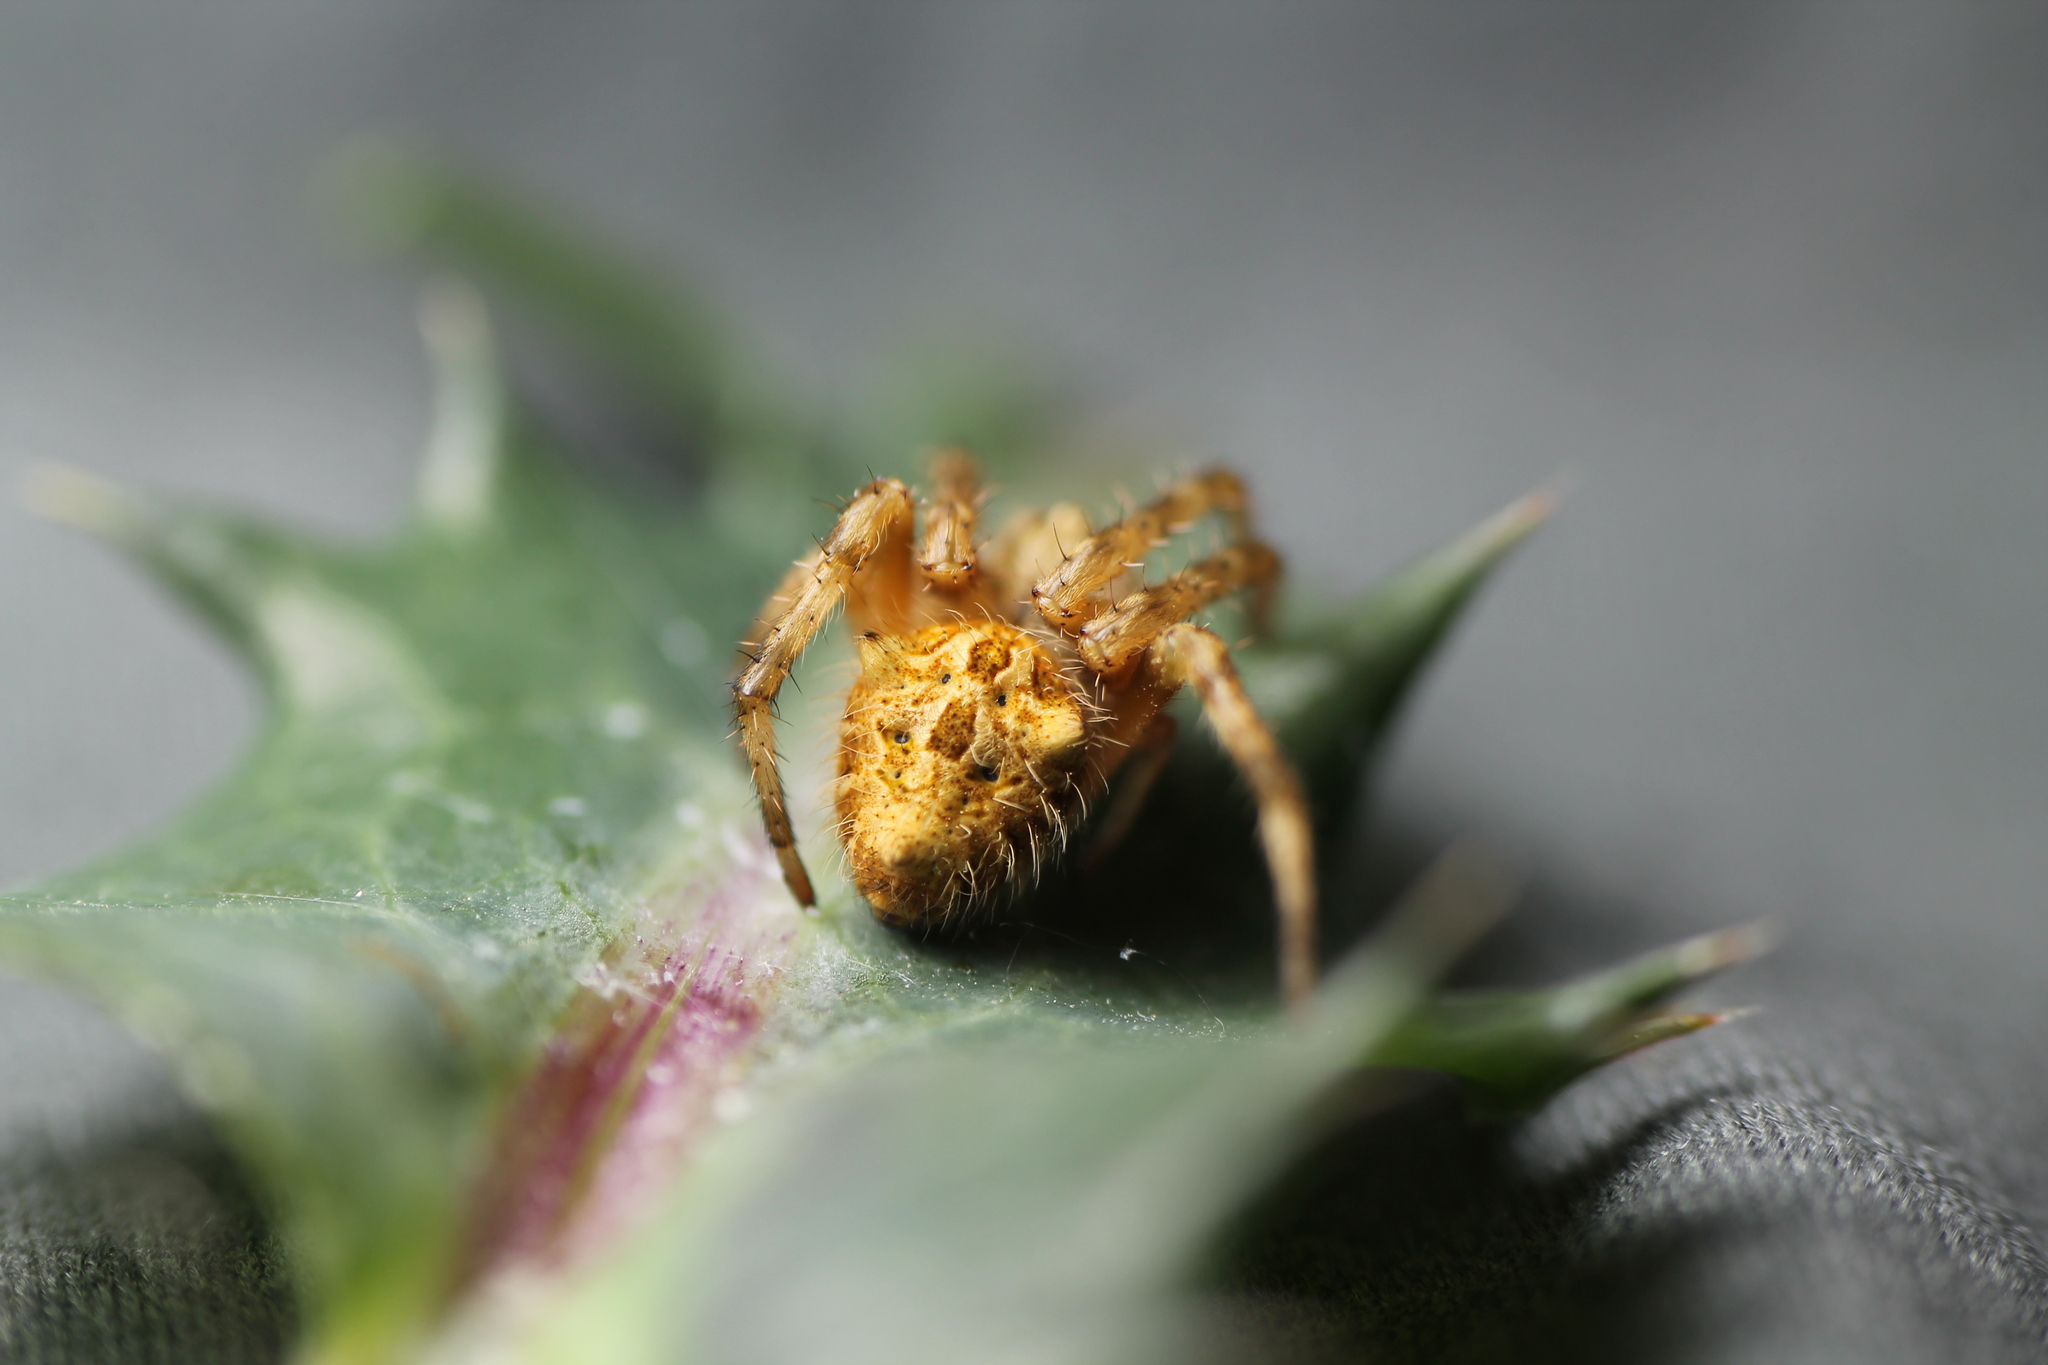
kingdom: Animalia
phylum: Arthropoda
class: Arachnida
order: Araneae
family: Araneidae
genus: Backobourkia
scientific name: Backobourkia brouni
